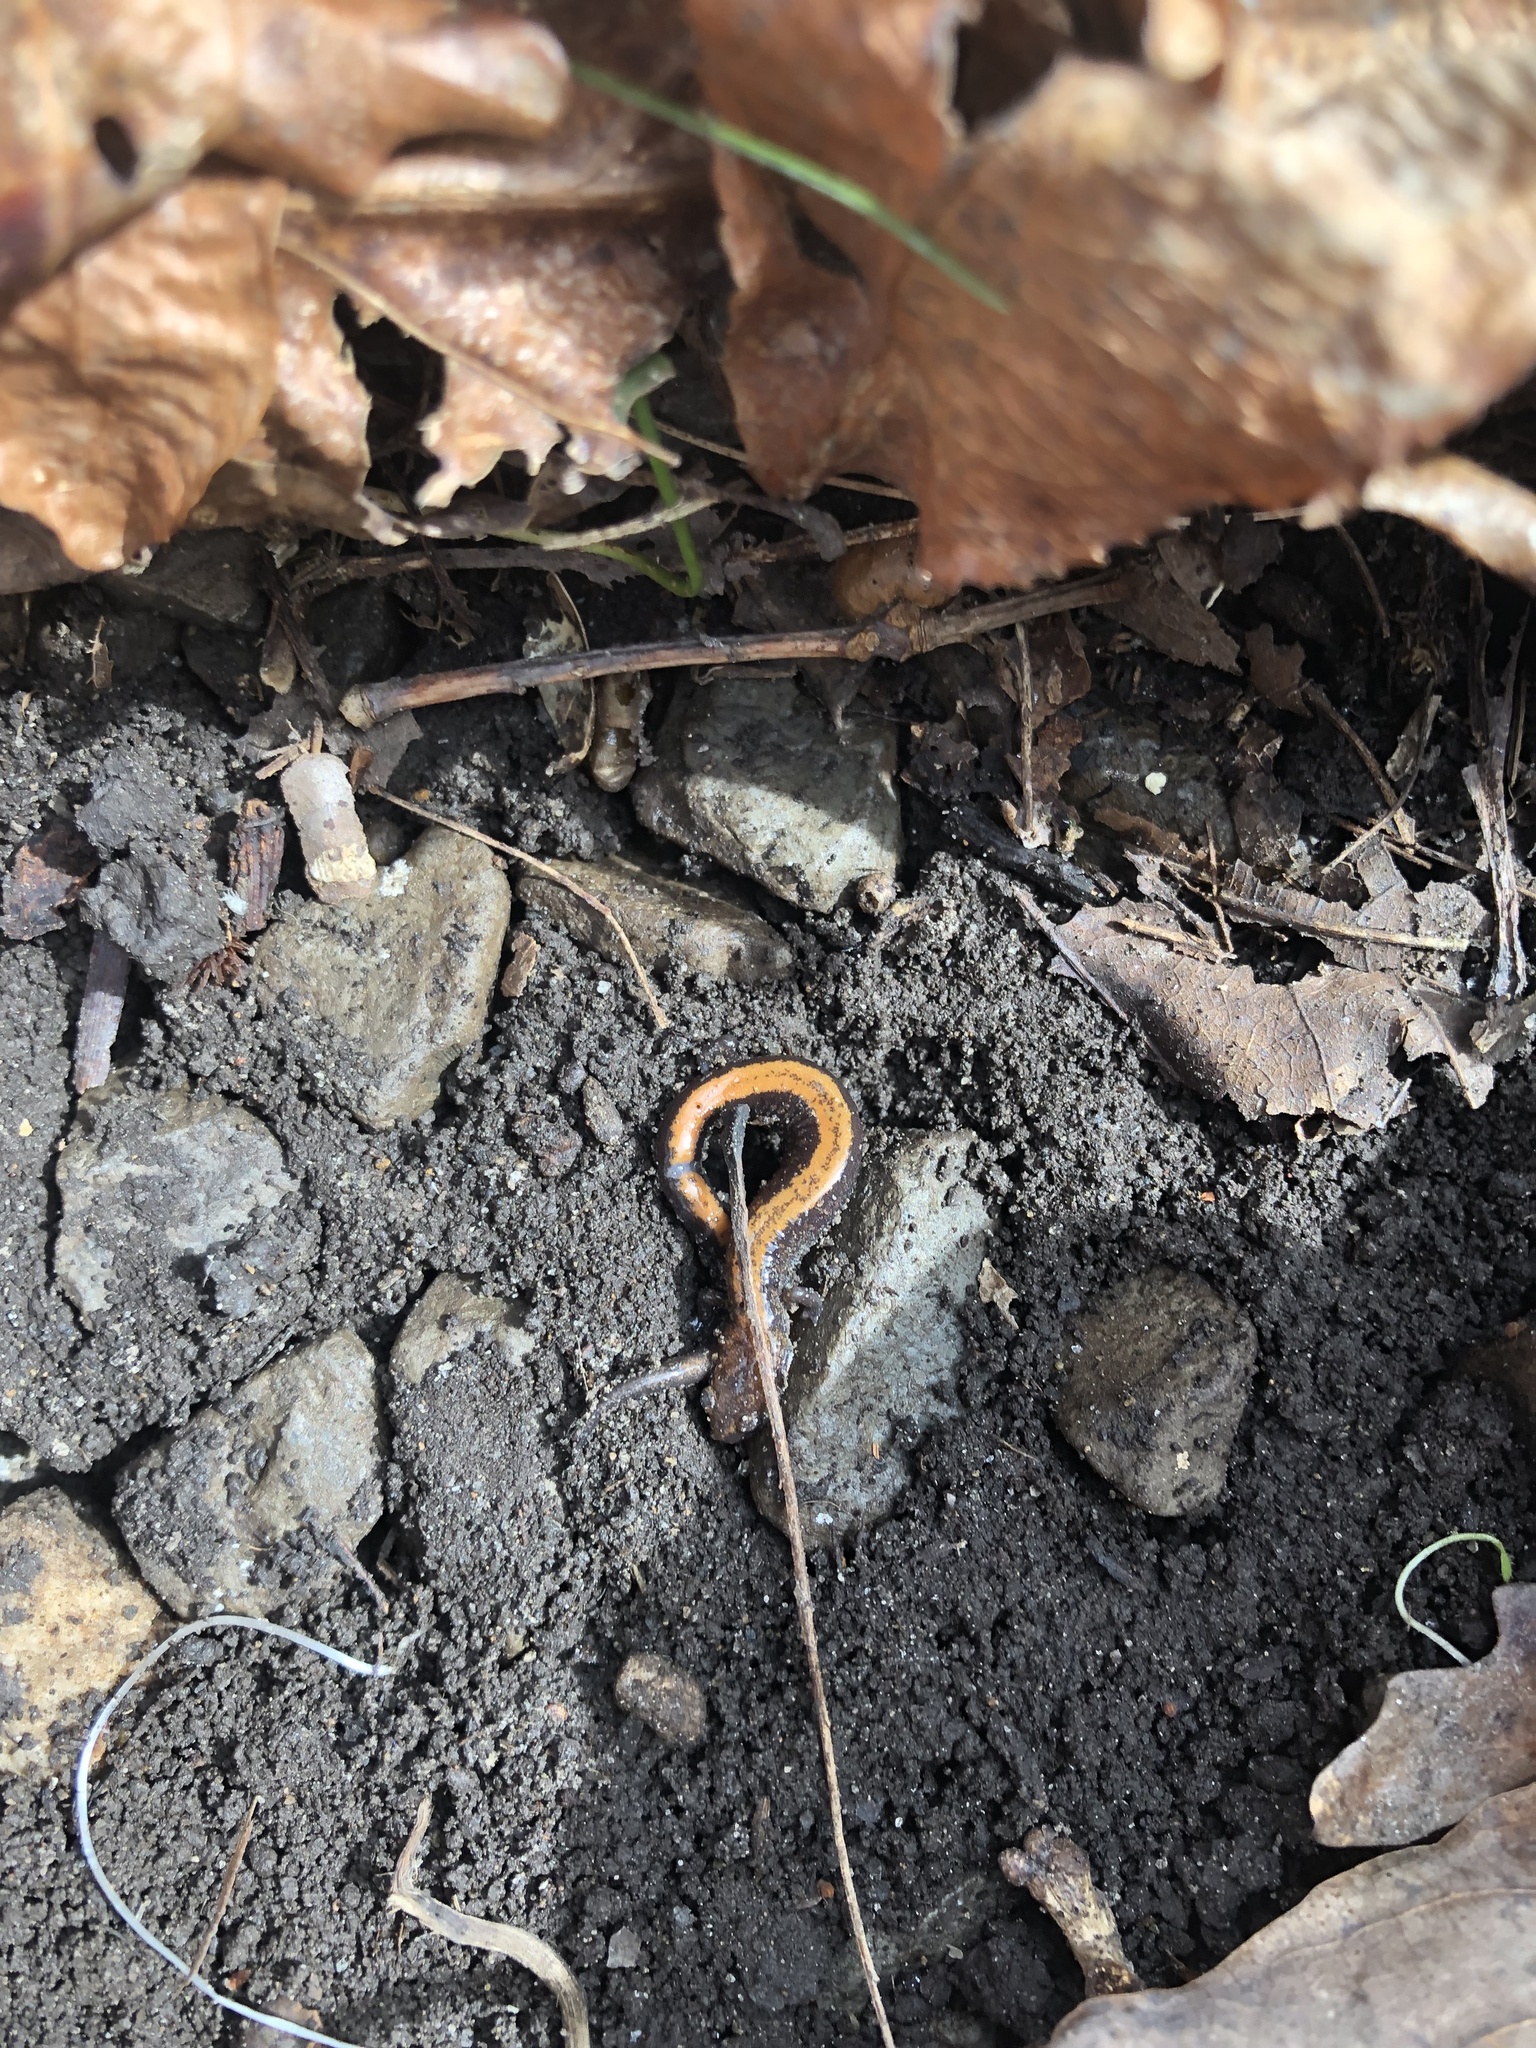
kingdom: Animalia
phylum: Chordata
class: Amphibia
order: Caudata
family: Plethodontidae
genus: Plethodon
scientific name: Plethodon cinereus
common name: Redback salamander
